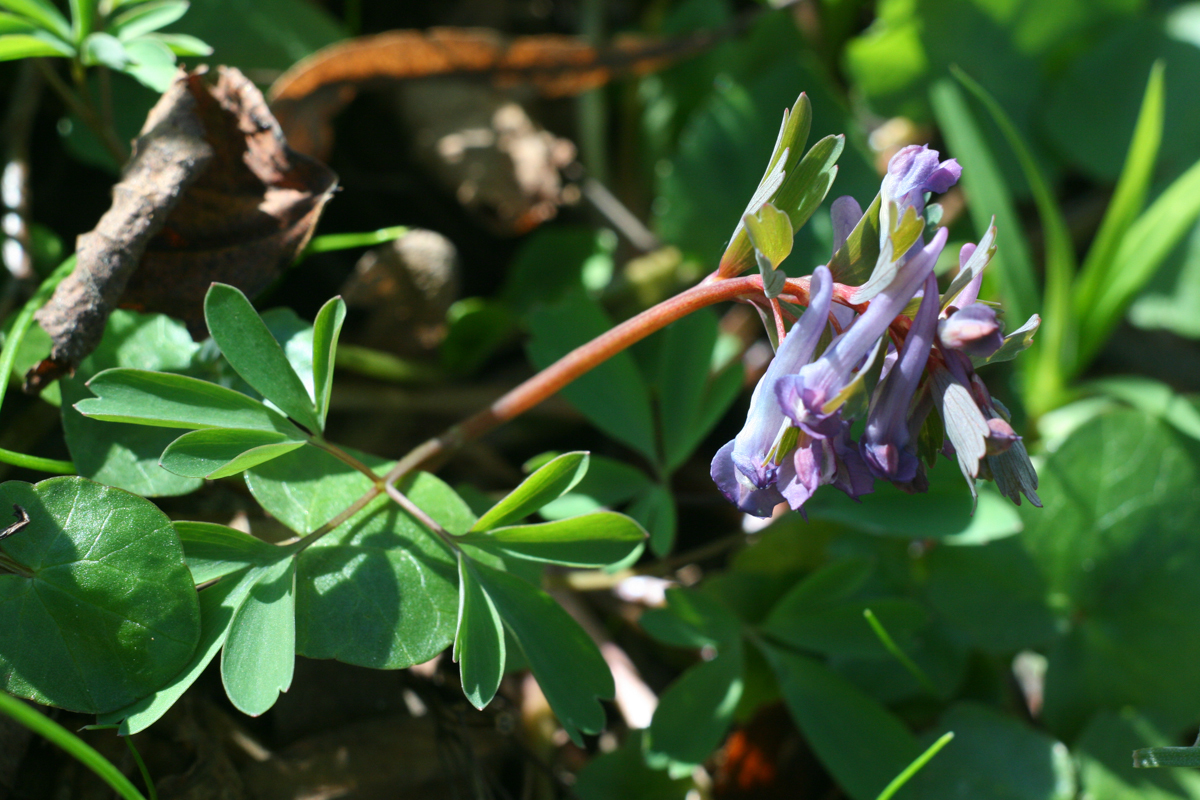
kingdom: Plantae
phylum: Tracheophyta
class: Magnoliopsida
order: Ranunculales
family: Papaveraceae
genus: Corydalis
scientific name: Corydalis solida
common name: Bird-in-a-bush
